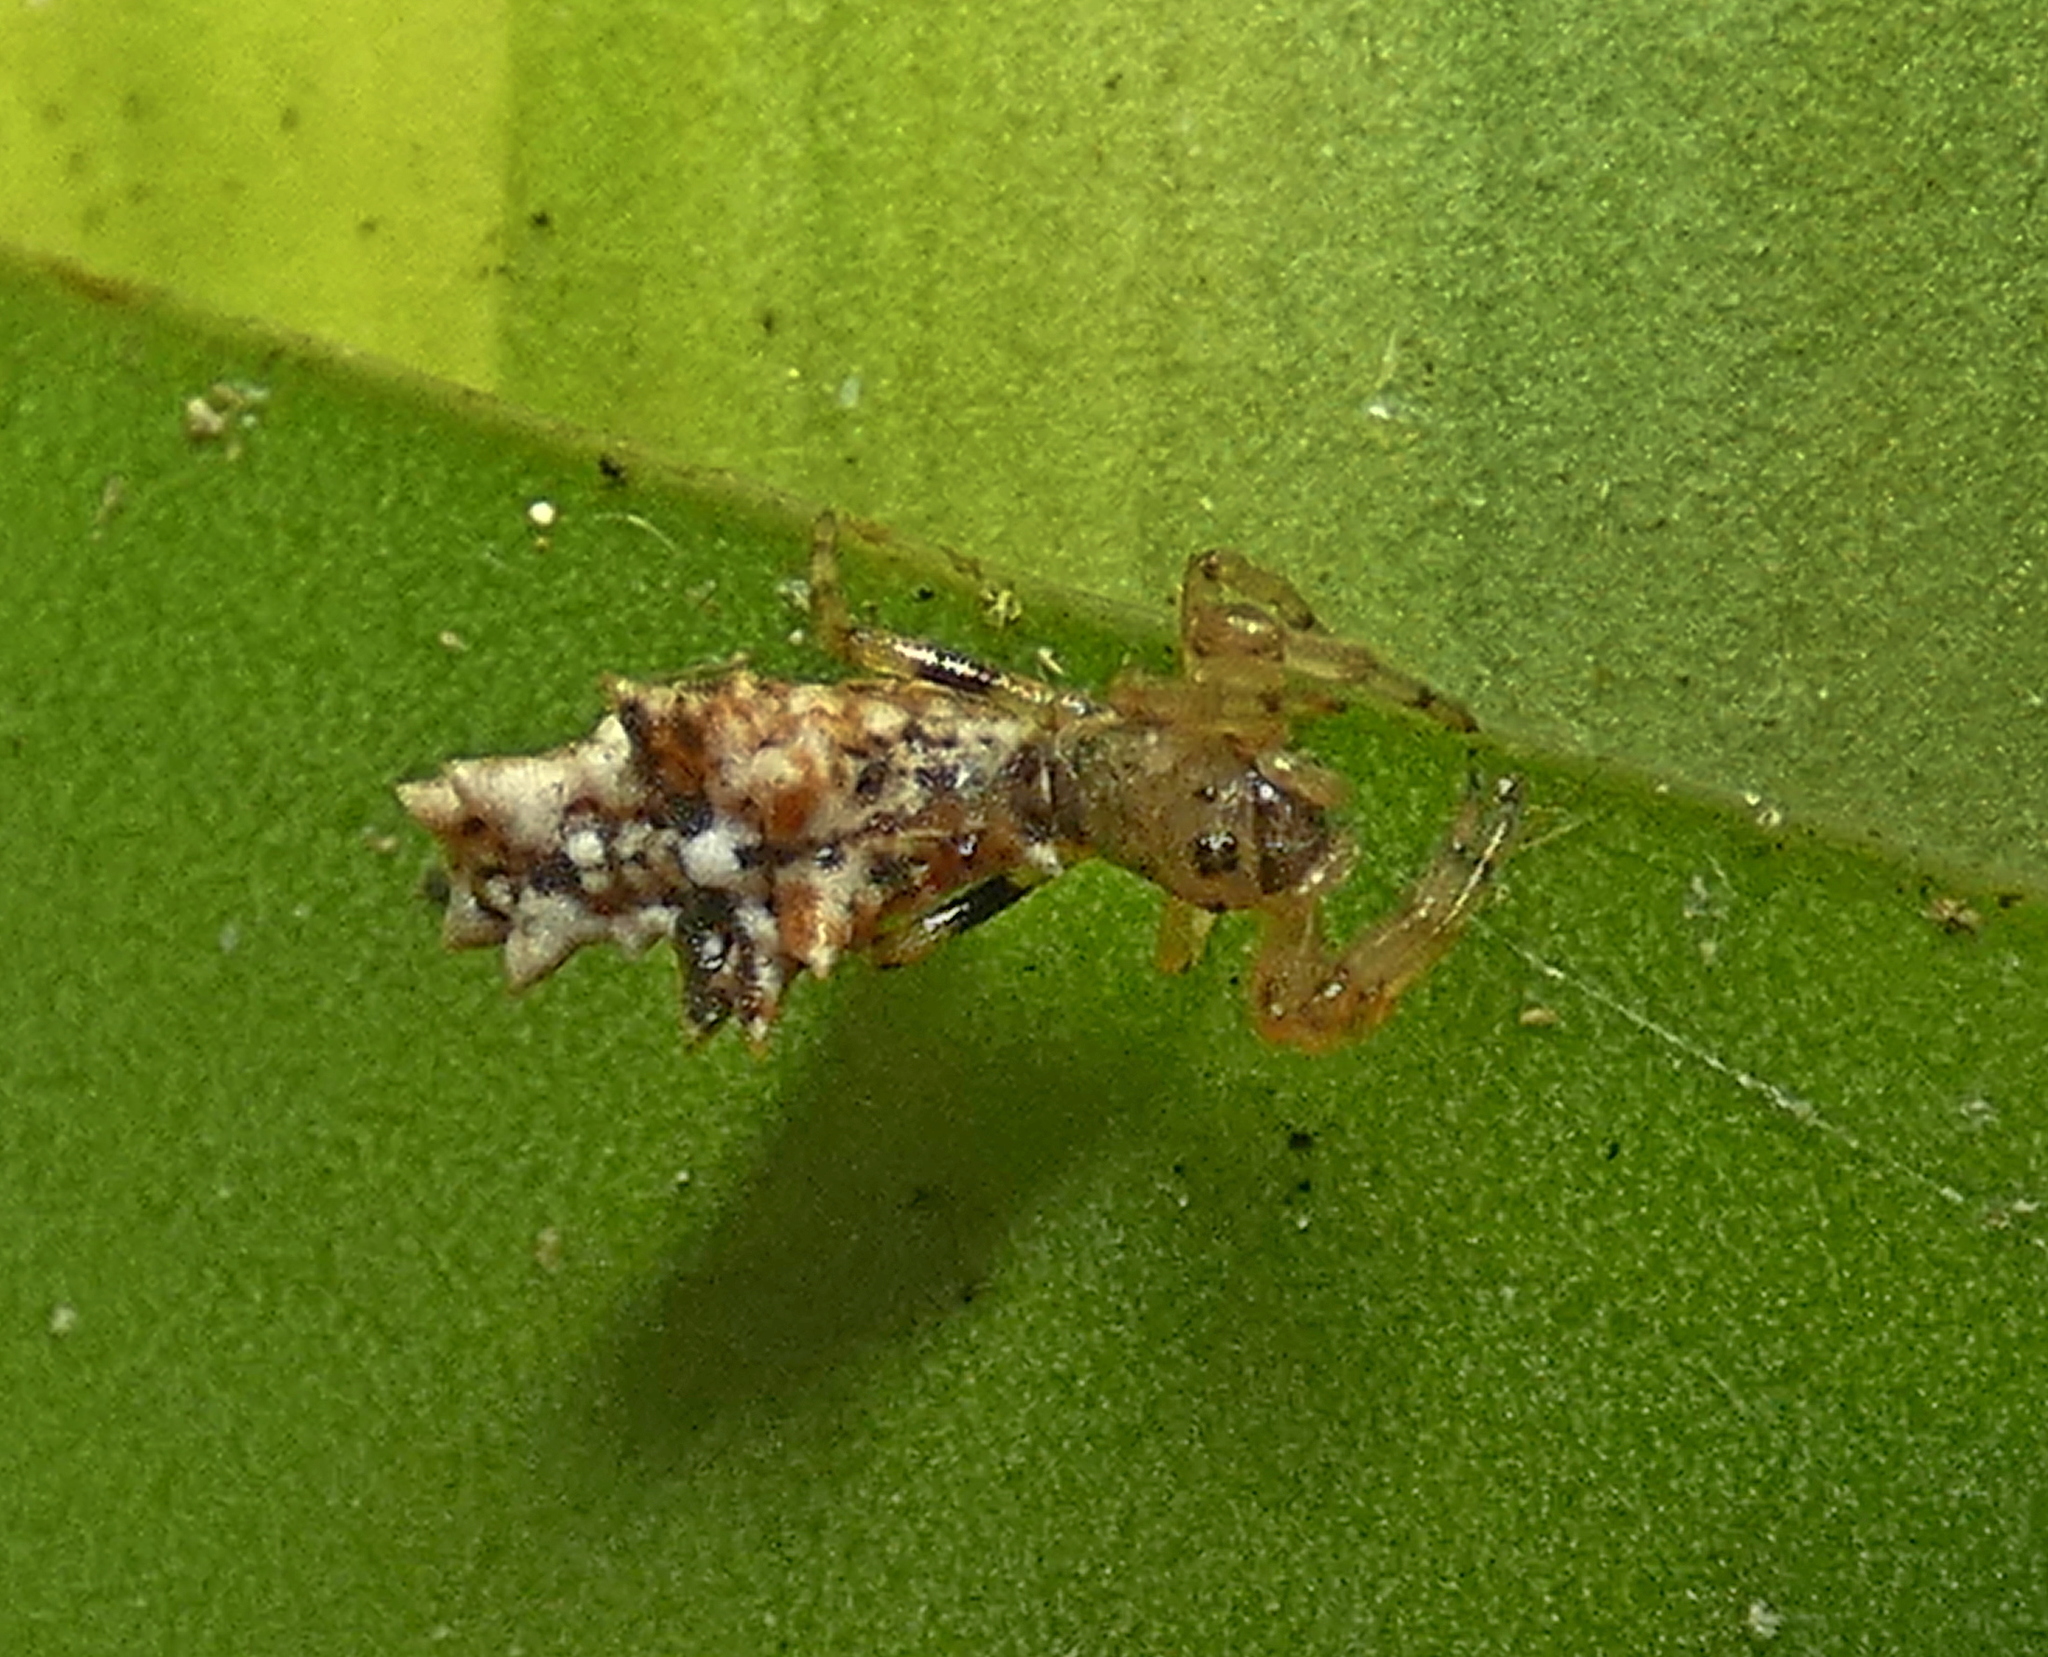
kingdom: Animalia
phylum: Arthropoda
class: Arachnida
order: Araneae
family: Araneidae
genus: Micrathena
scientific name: Micrathena horrida
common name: Orb weavers
